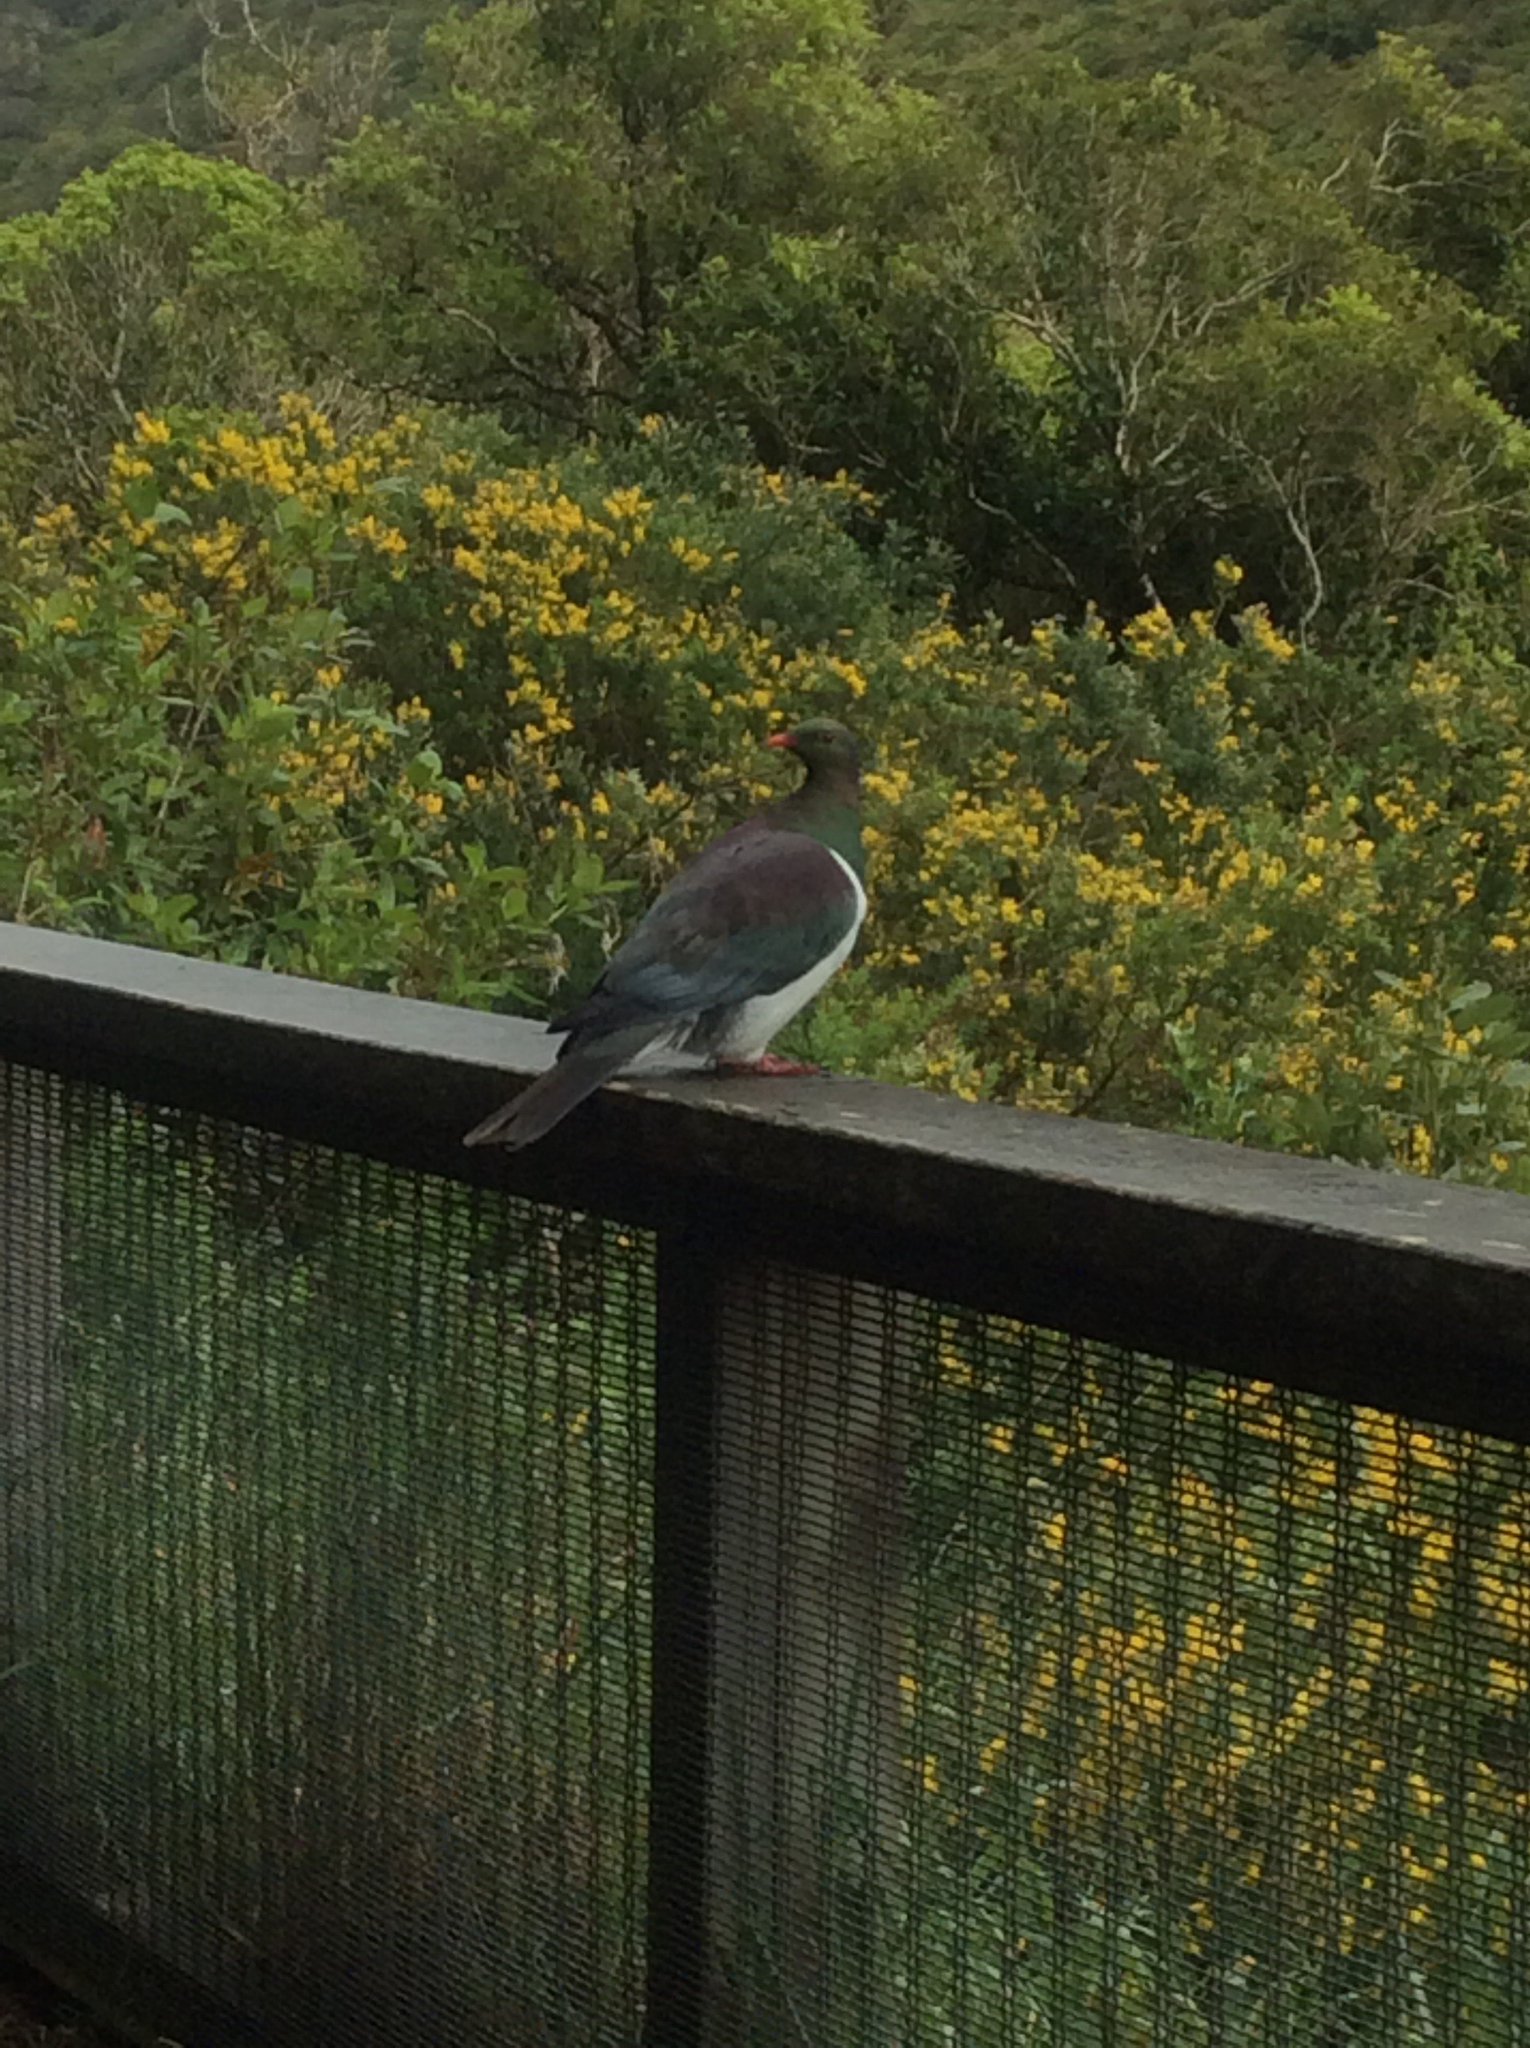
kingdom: Animalia
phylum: Chordata
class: Aves
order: Columbiformes
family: Columbidae
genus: Hemiphaga
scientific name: Hemiphaga novaeseelandiae
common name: New zealand pigeon
